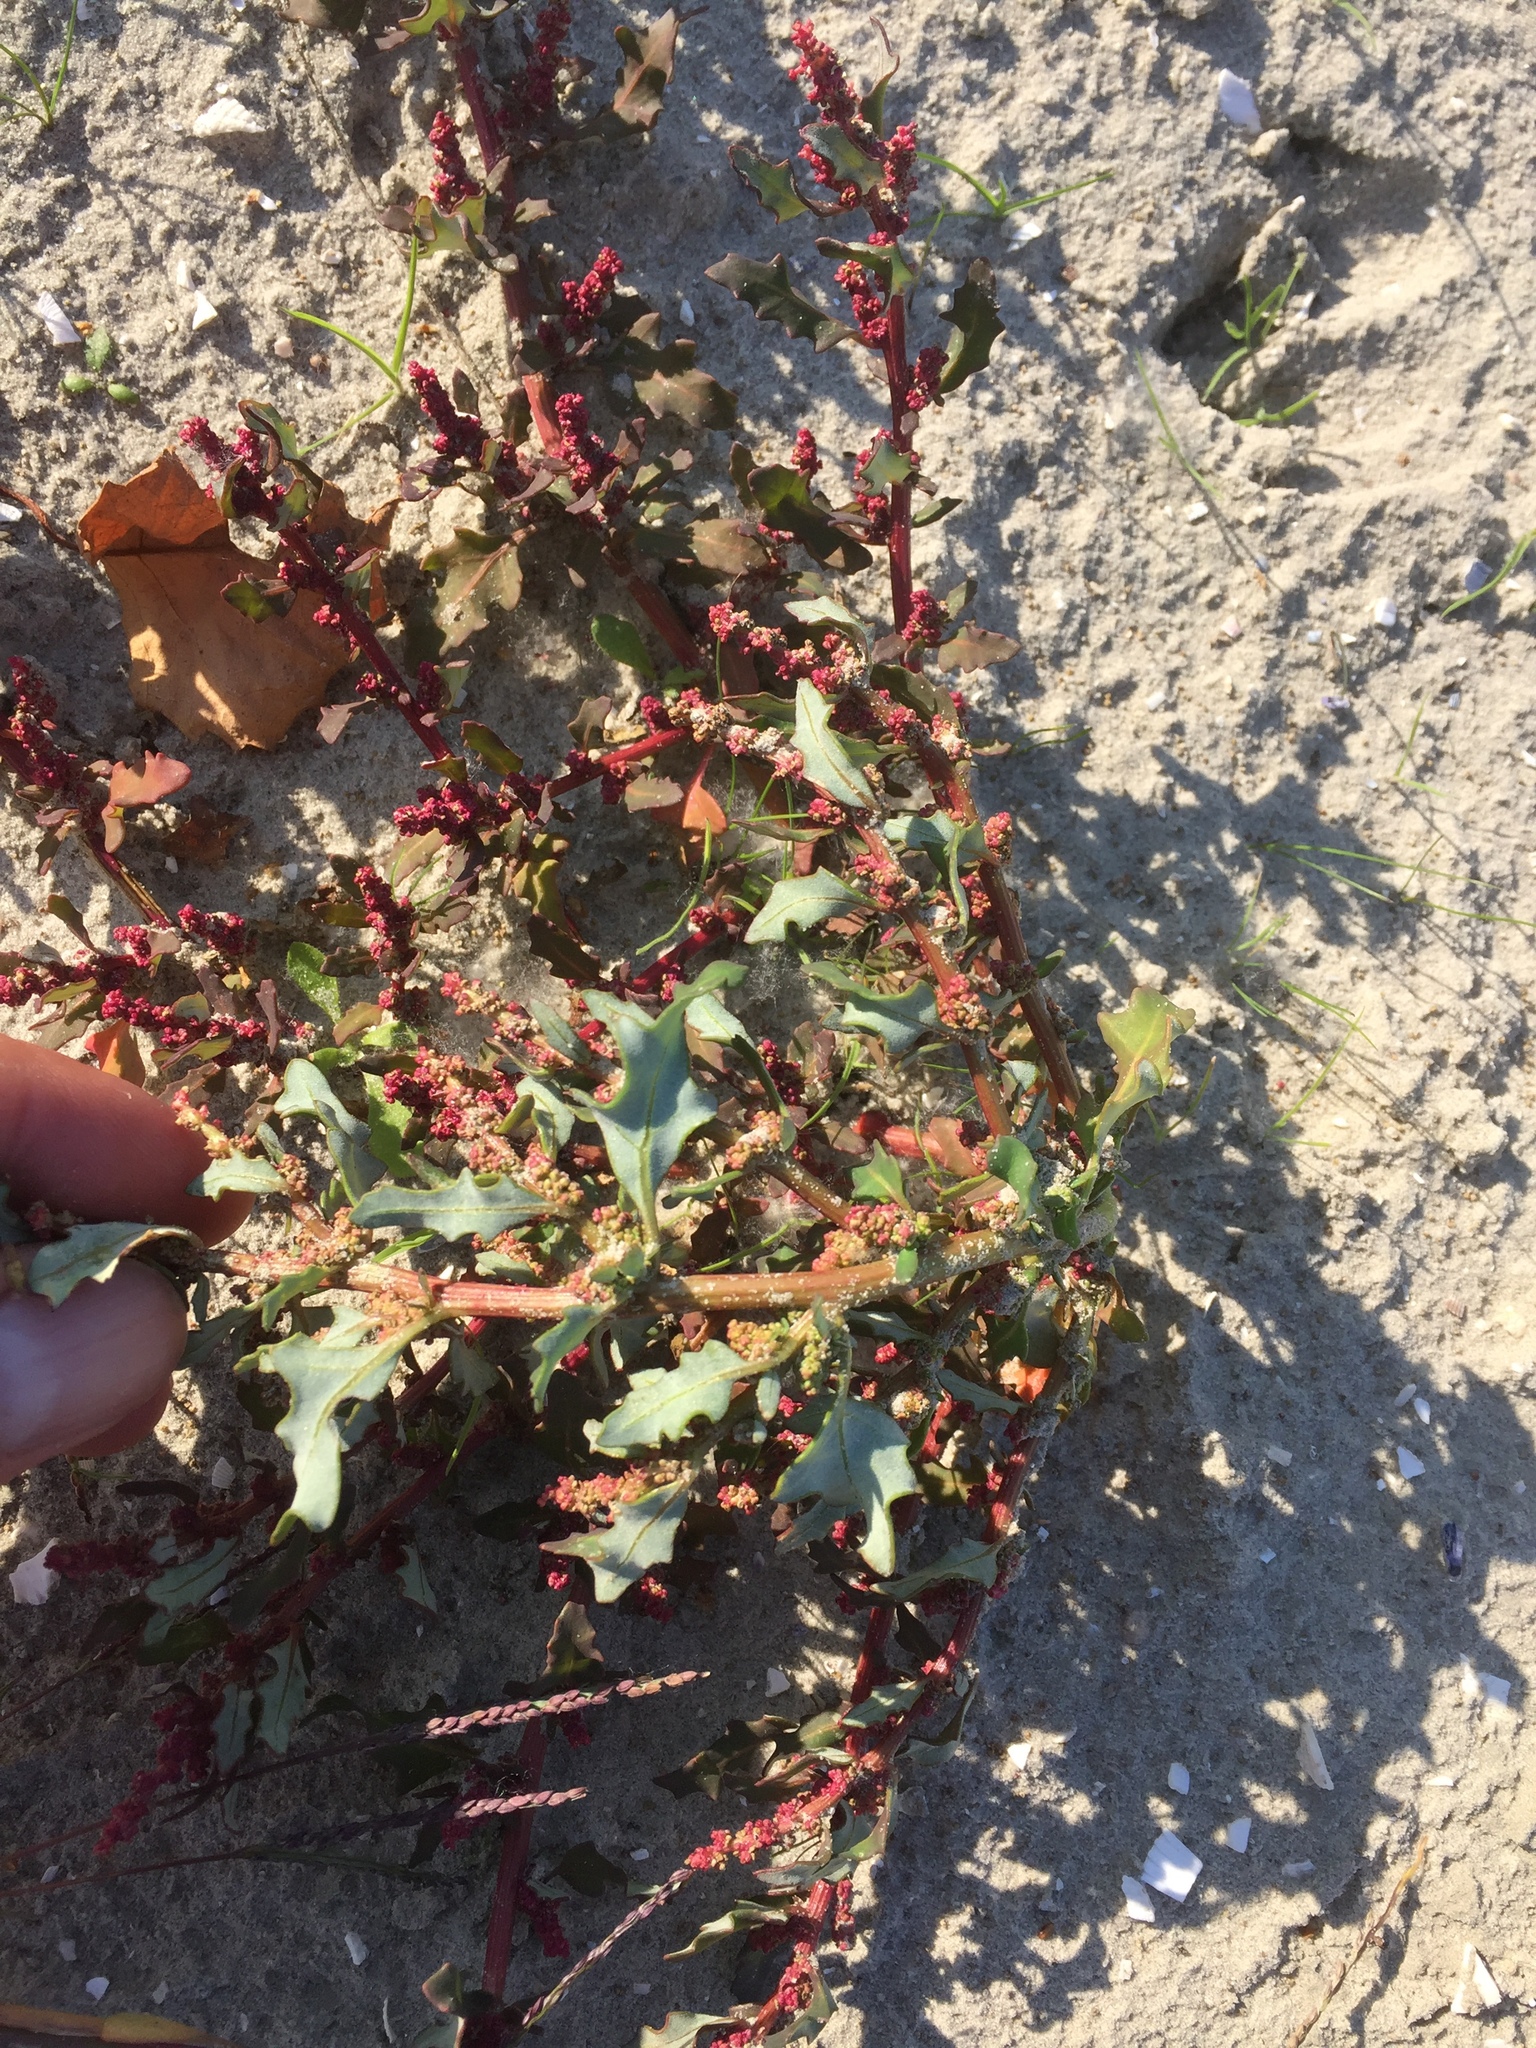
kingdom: Plantae
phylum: Tracheophyta
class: Magnoliopsida
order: Caryophyllales
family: Amaranthaceae
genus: Oxybasis
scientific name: Oxybasis glauca
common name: Glaucous goosefoot
